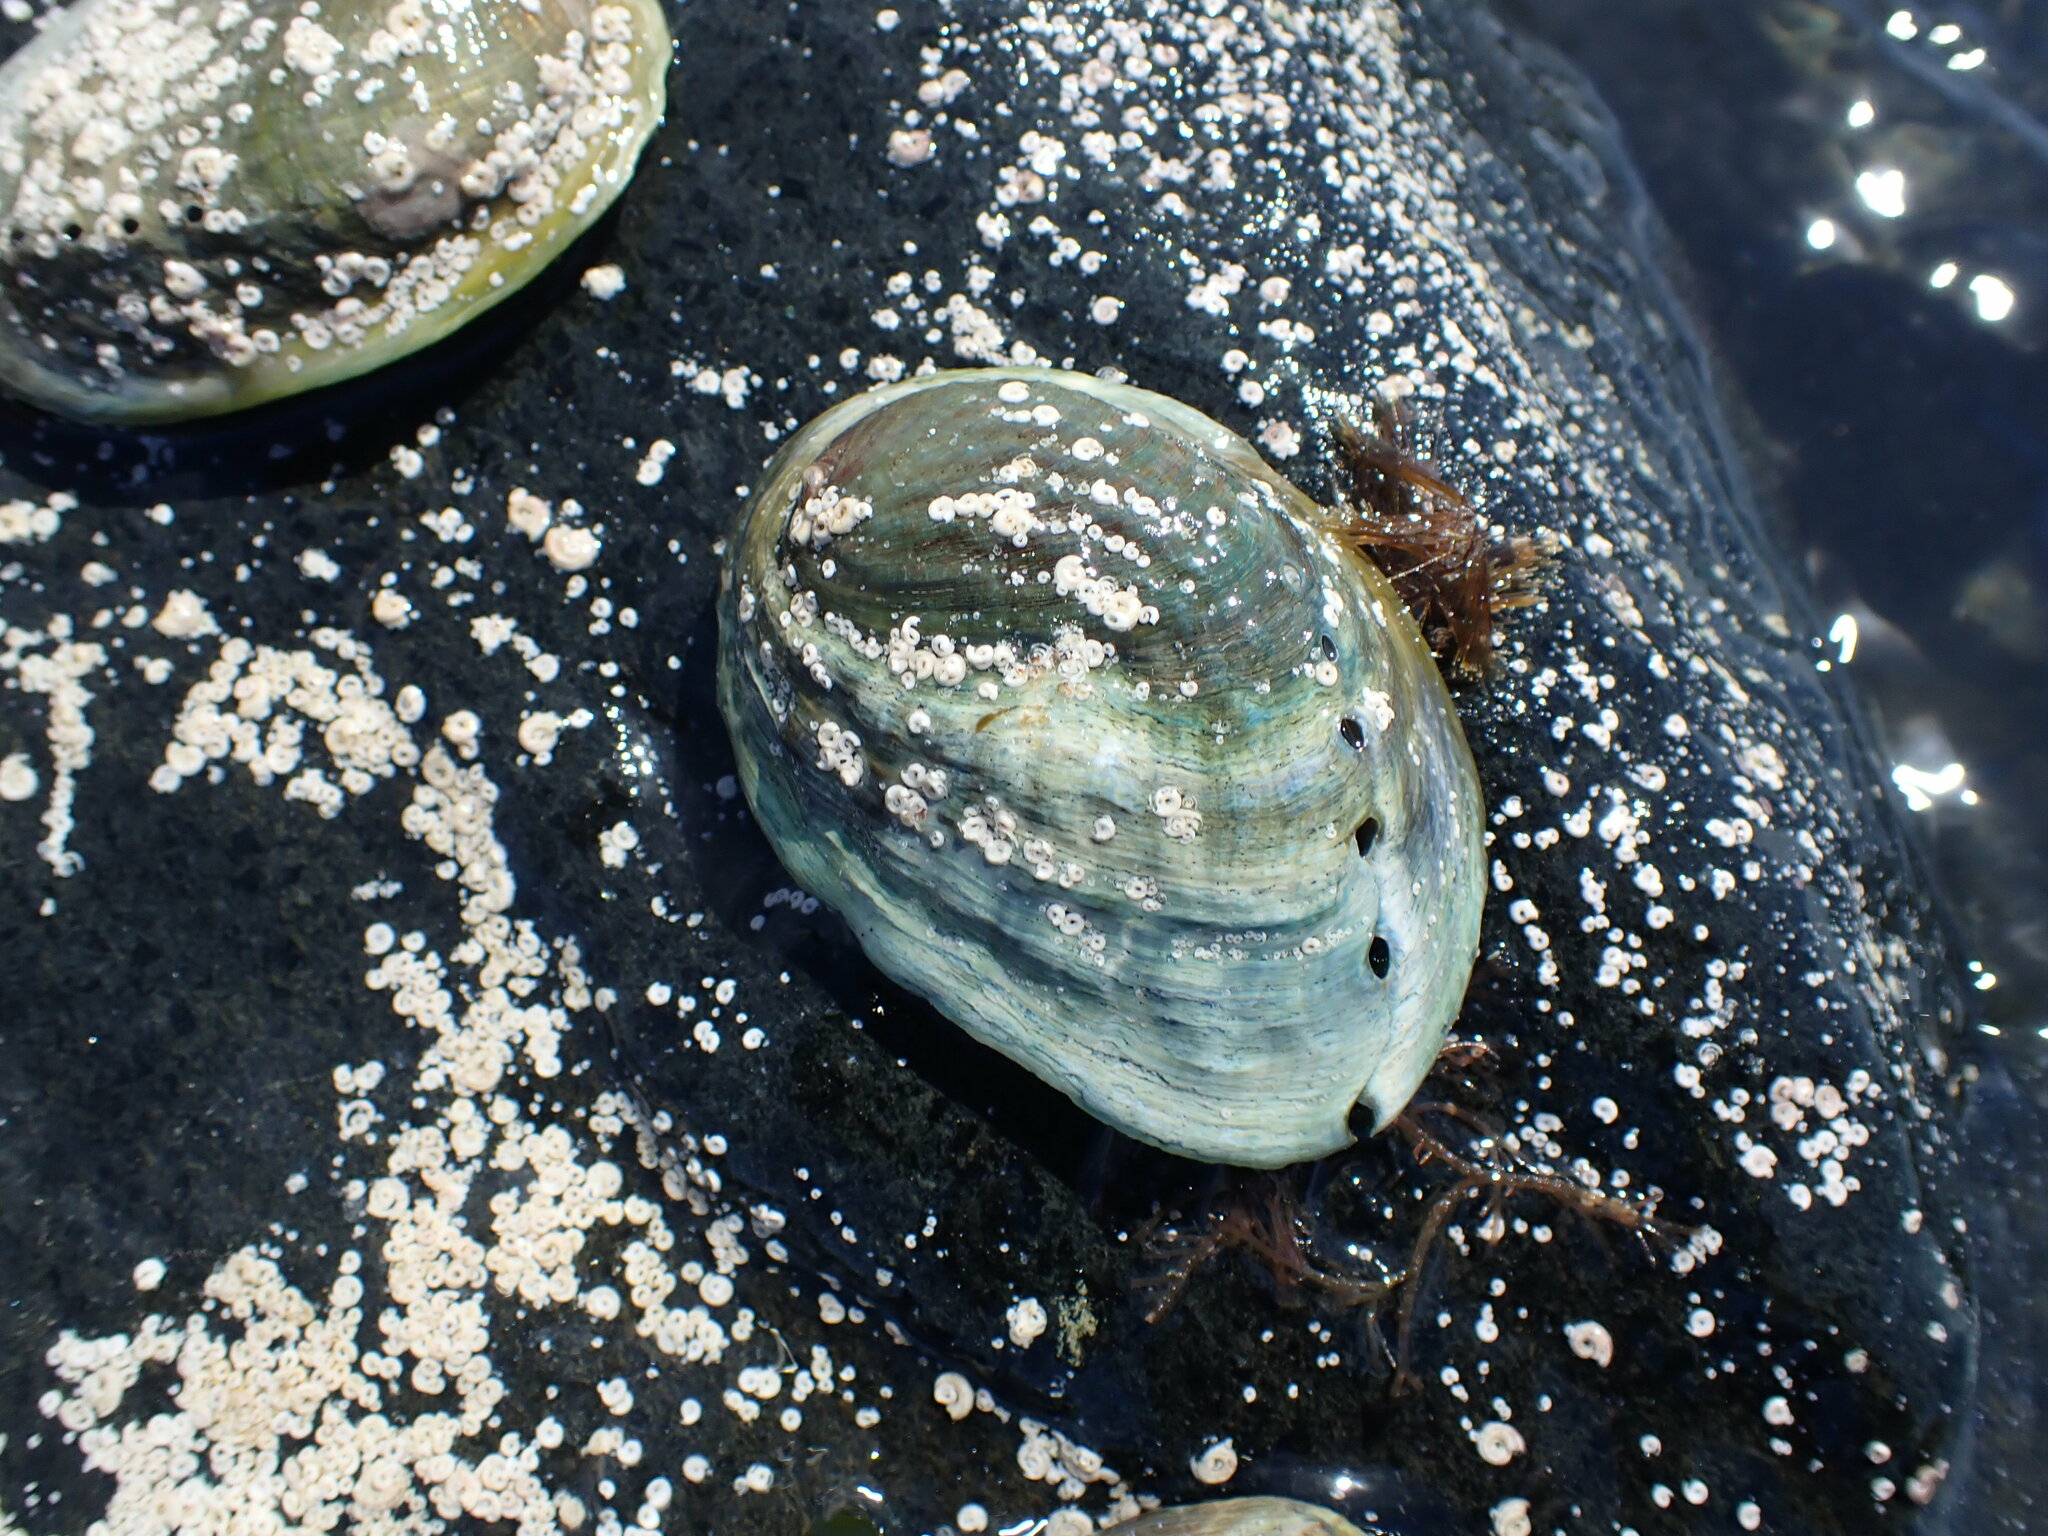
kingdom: Animalia
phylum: Mollusca
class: Gastropoda
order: Lepetellida
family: Haliotidae
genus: Haliotis
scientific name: Haliotis iris
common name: Abalone
